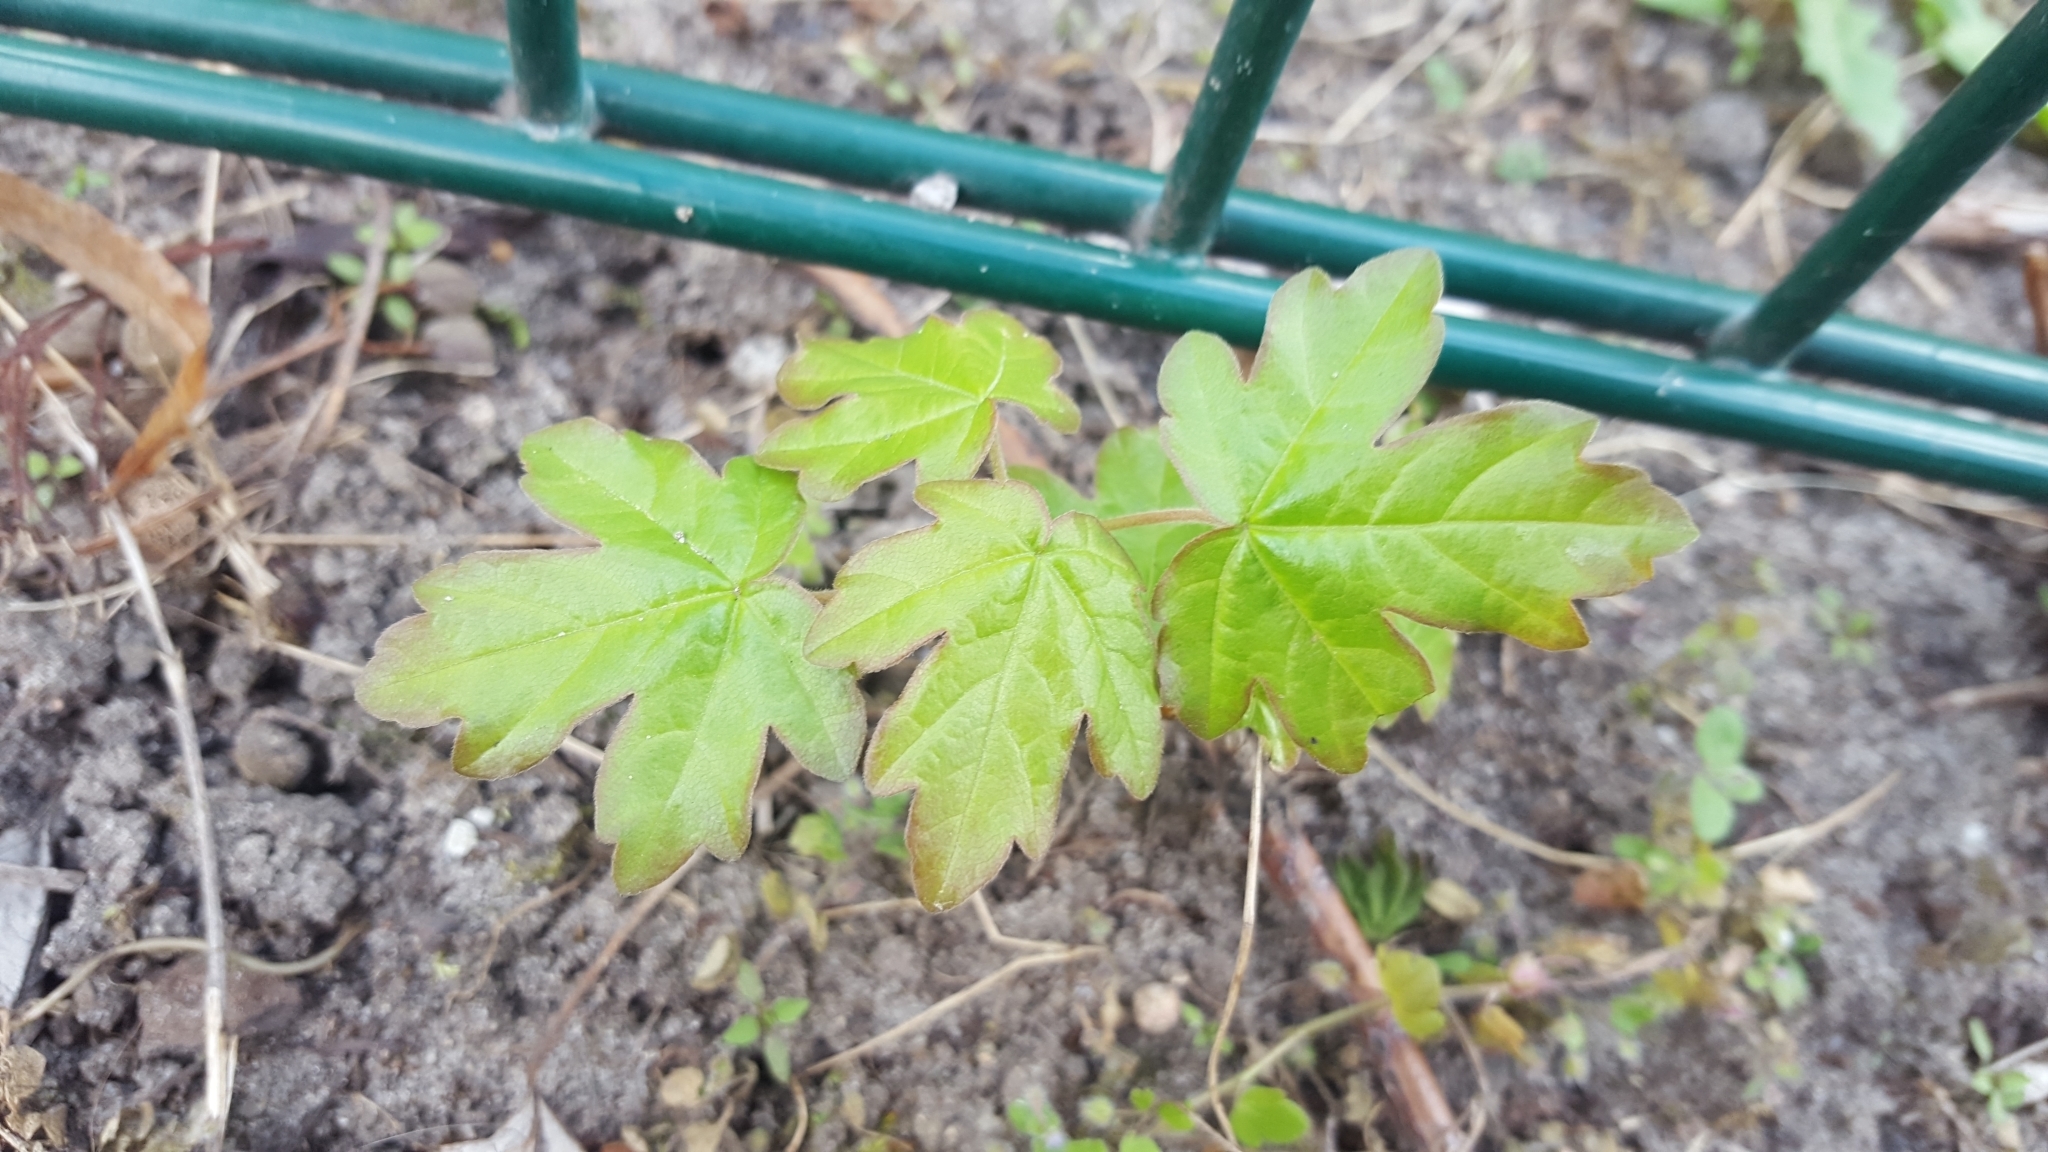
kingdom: Plantae
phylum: Tracheophyta
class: Magnoliopsida
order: Sapindales
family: Sapindaceae
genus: Acer
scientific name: Acer campestre
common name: Field maple
